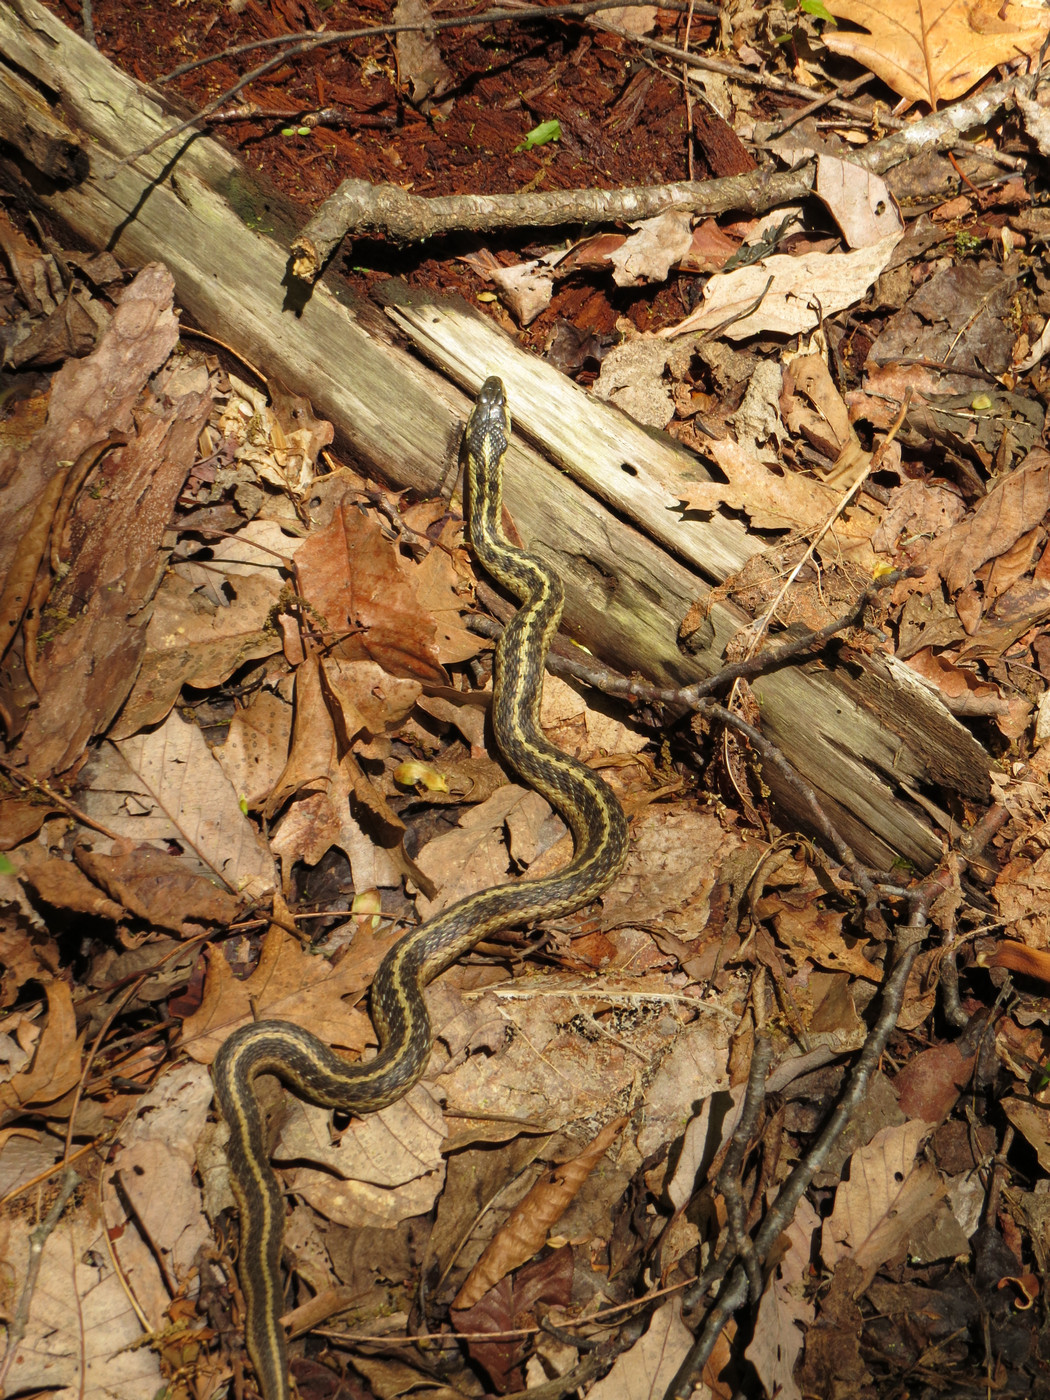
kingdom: Animalia
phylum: Chordata
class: Squamata
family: Colubridae
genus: Thamnophis
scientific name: Thamnophis sirtalis
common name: Common garter snake
